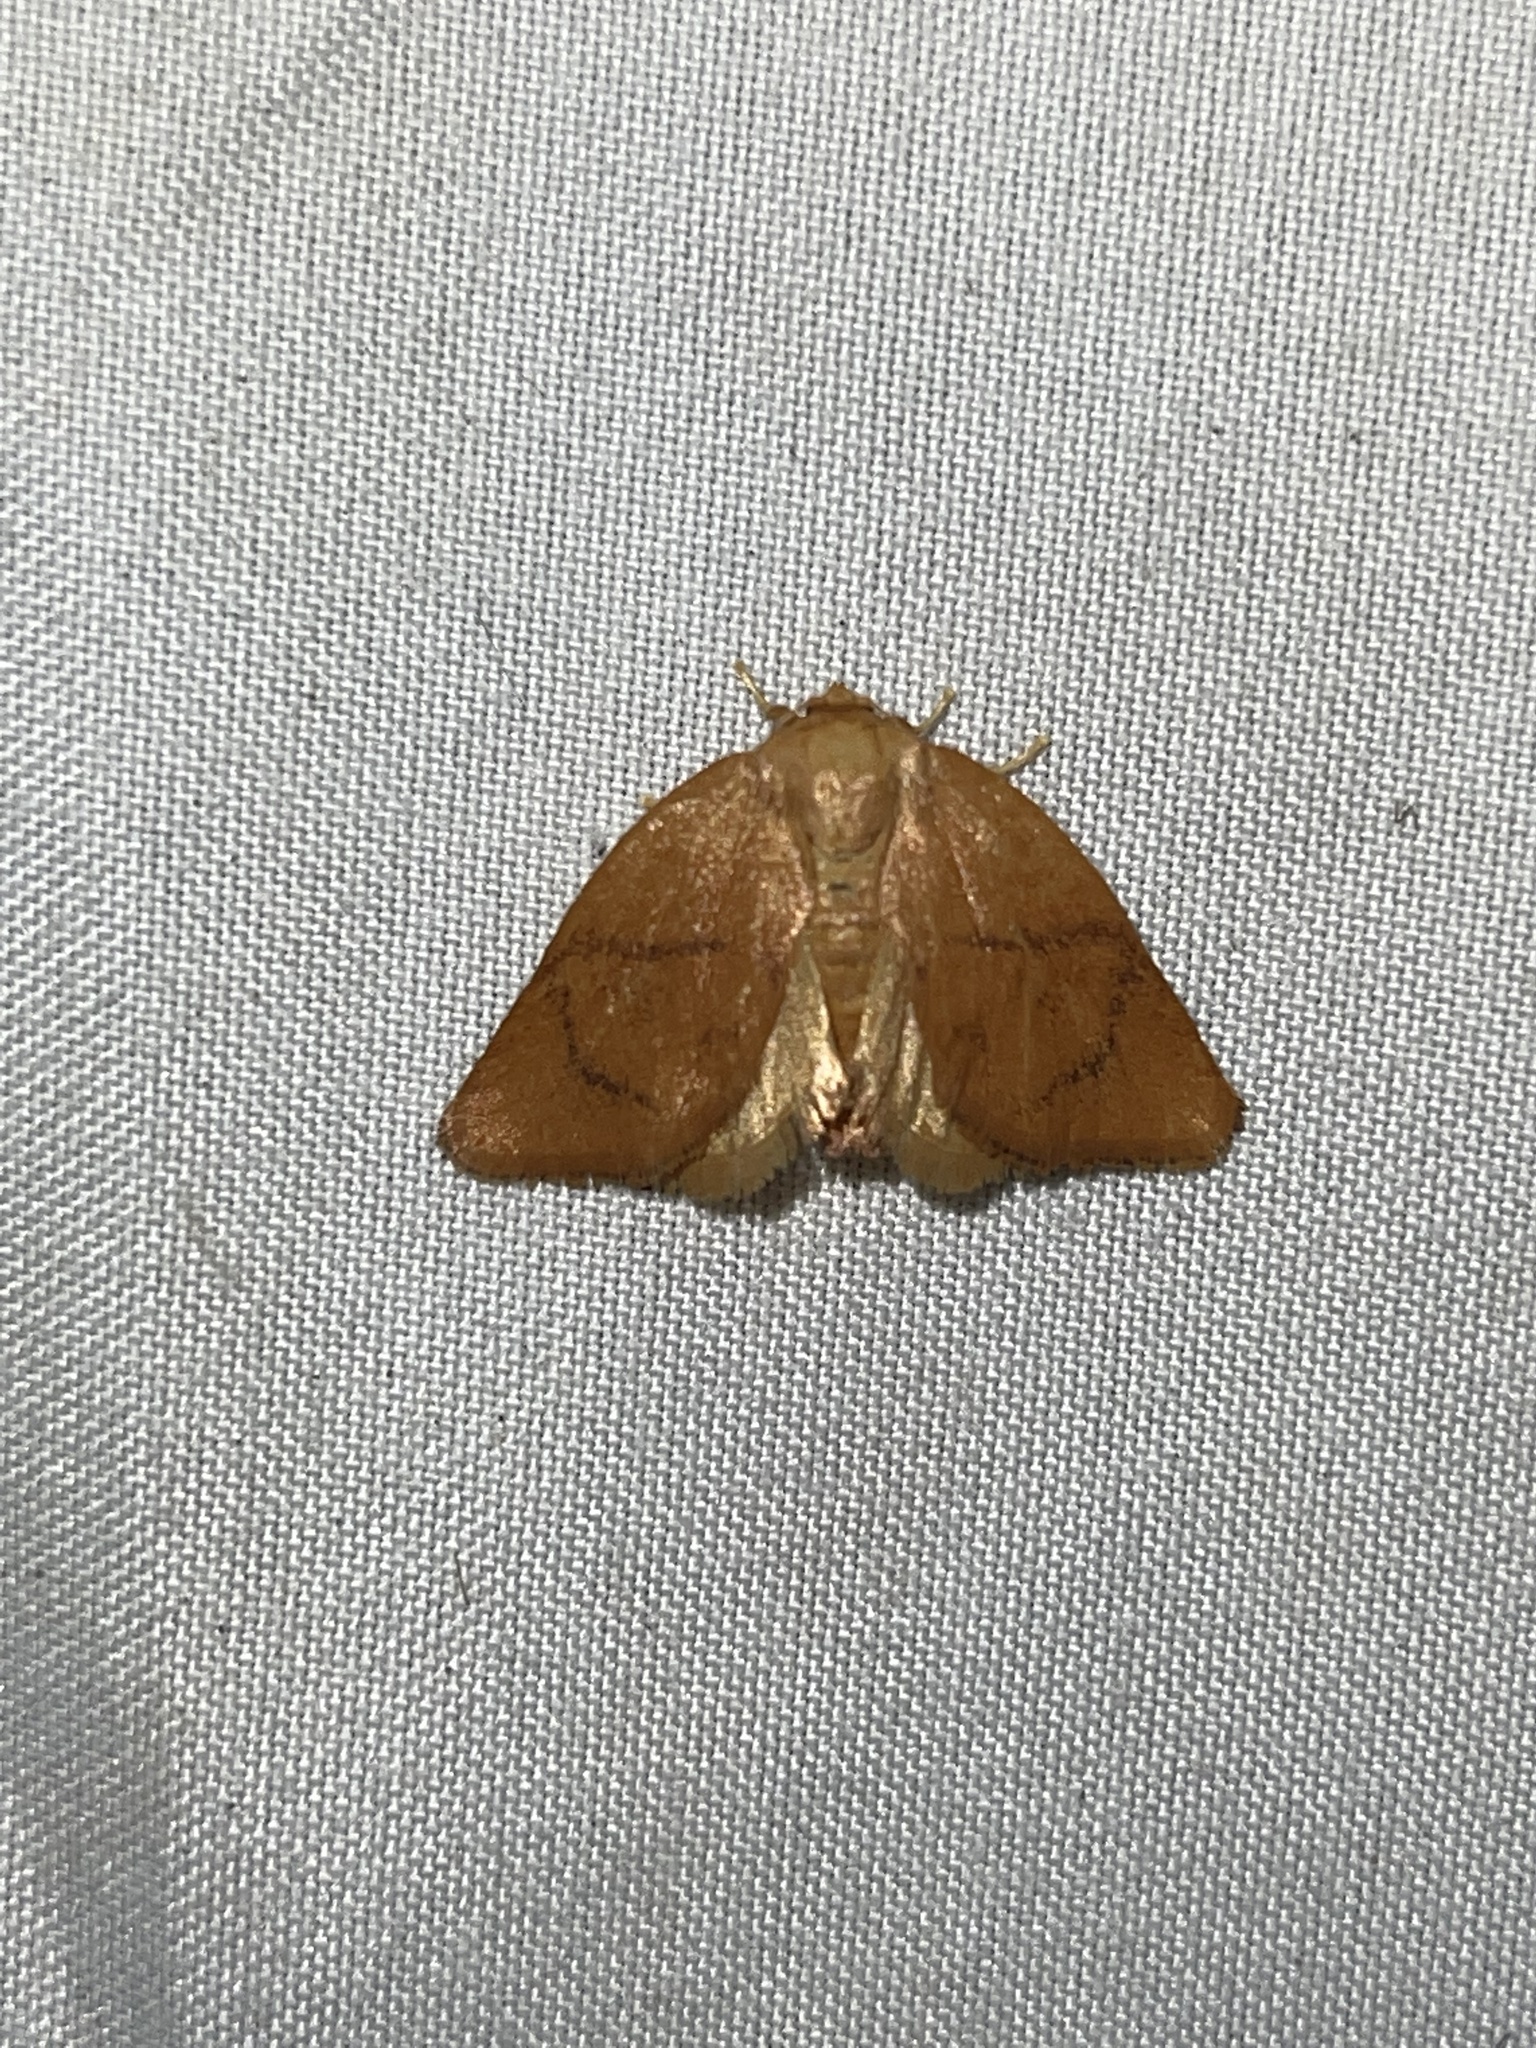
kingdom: Animalia
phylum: Arthropoda
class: Insecta
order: Lepidoptera
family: Limacodidae
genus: Tortricidia
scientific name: Tortricidia flexuosa
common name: Abbreviated button slug moth
